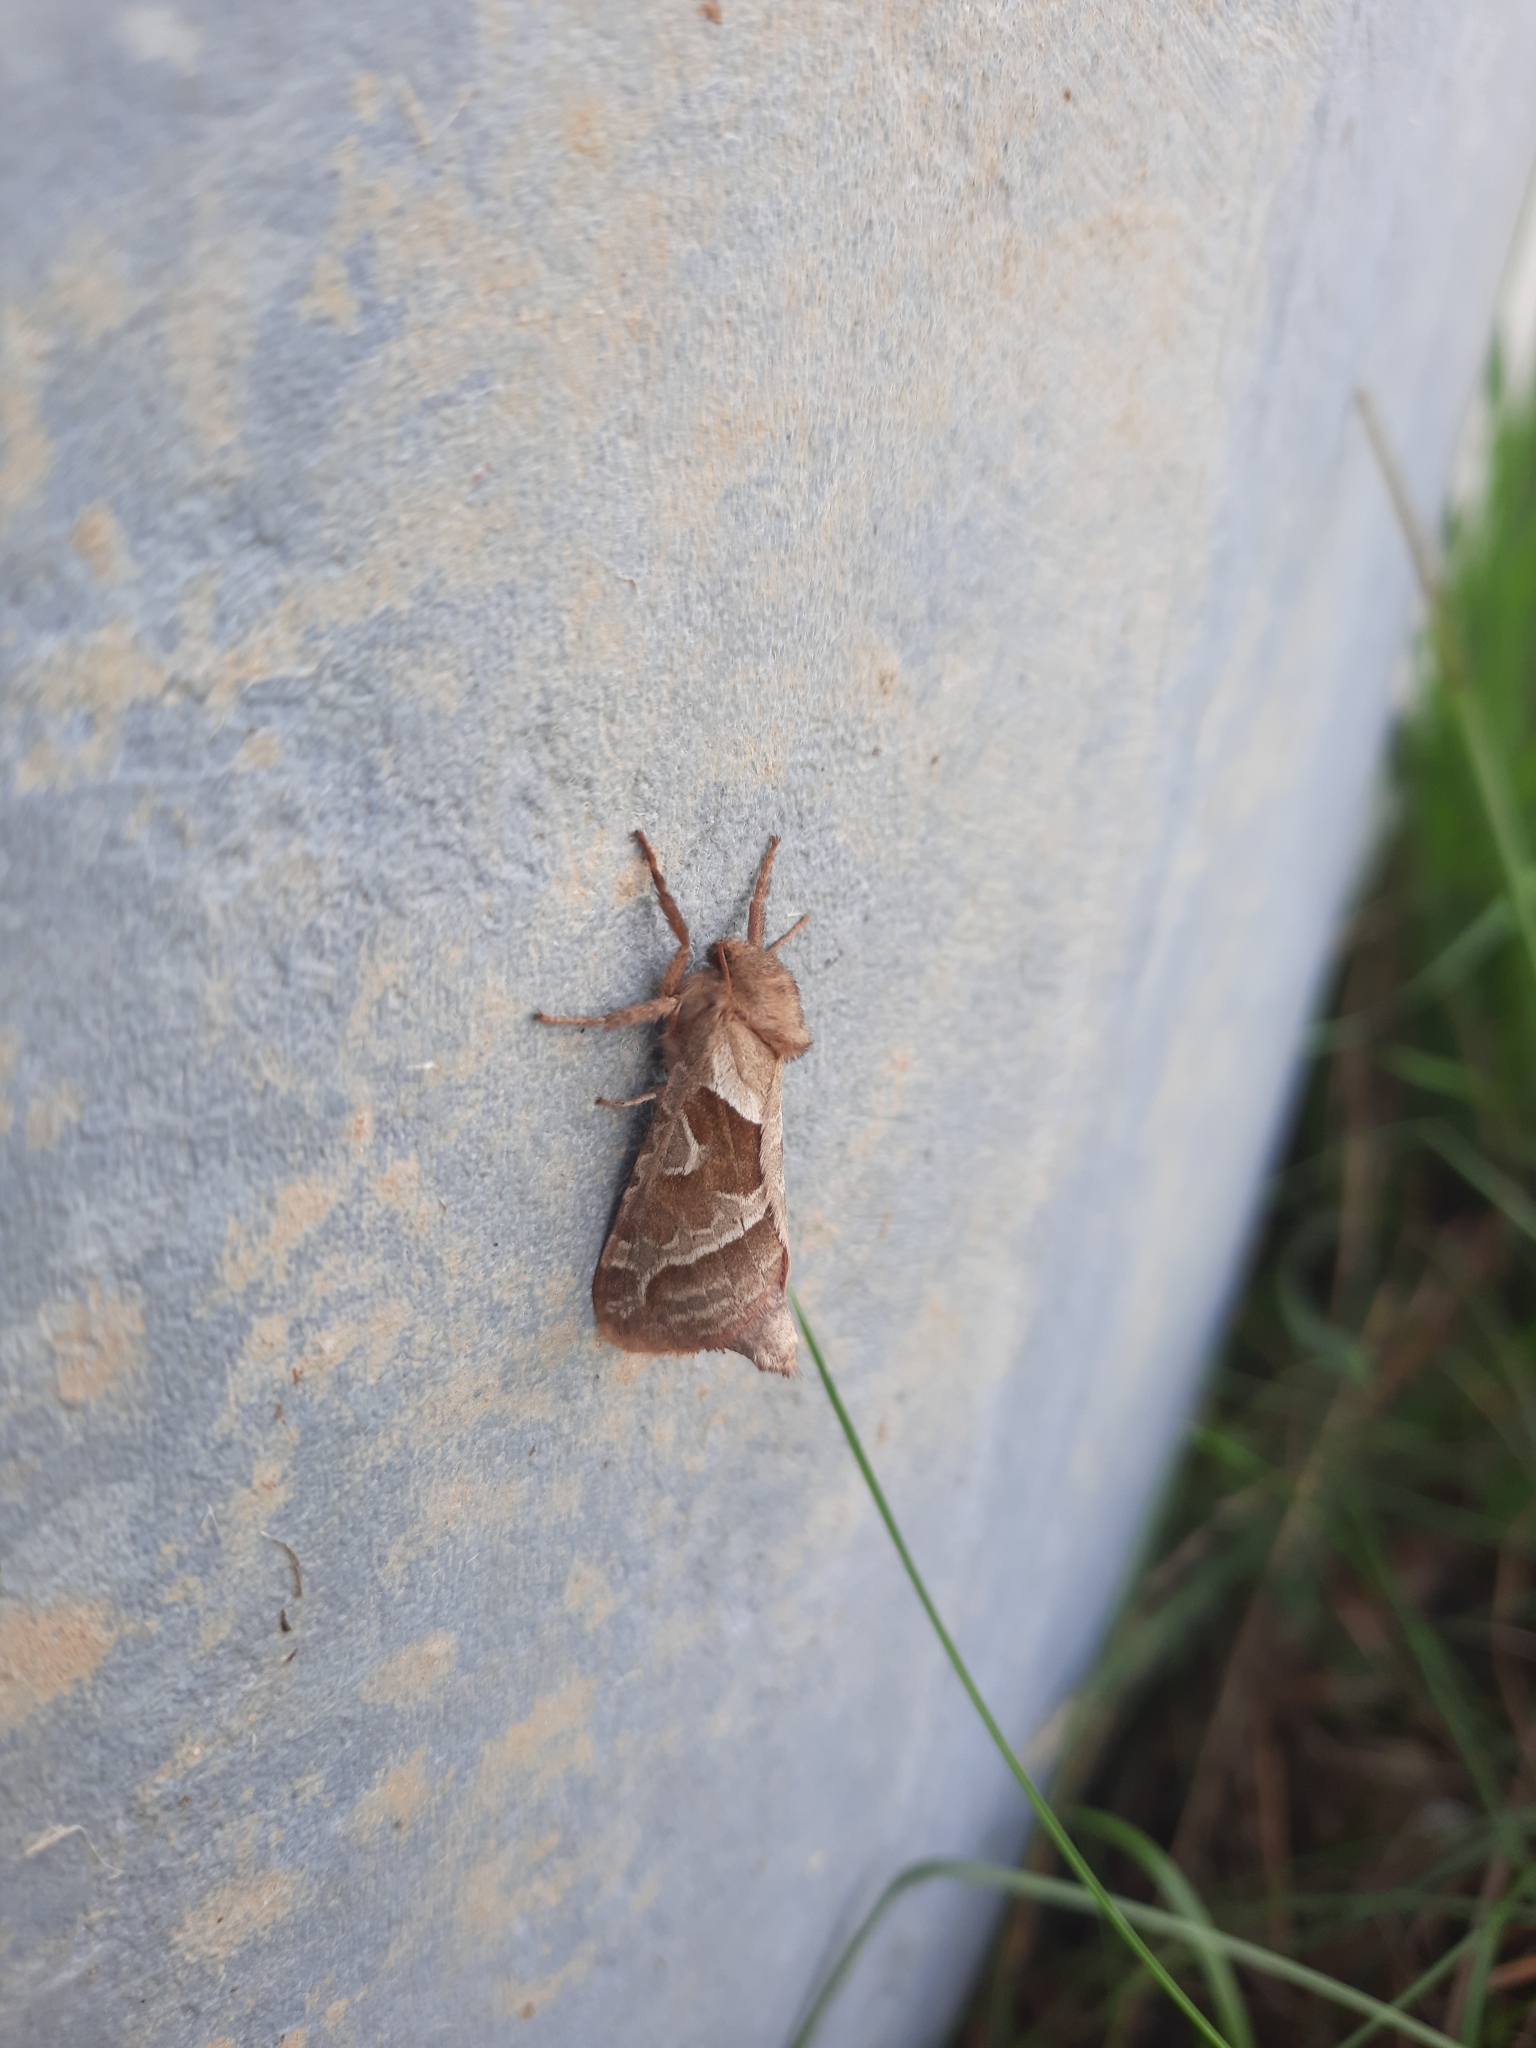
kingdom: Animalia
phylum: Arthropoda
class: Insecta
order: Lepidoptera
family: Hepialidae
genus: Triodia
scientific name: Triodia sylvina
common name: Orange swift
